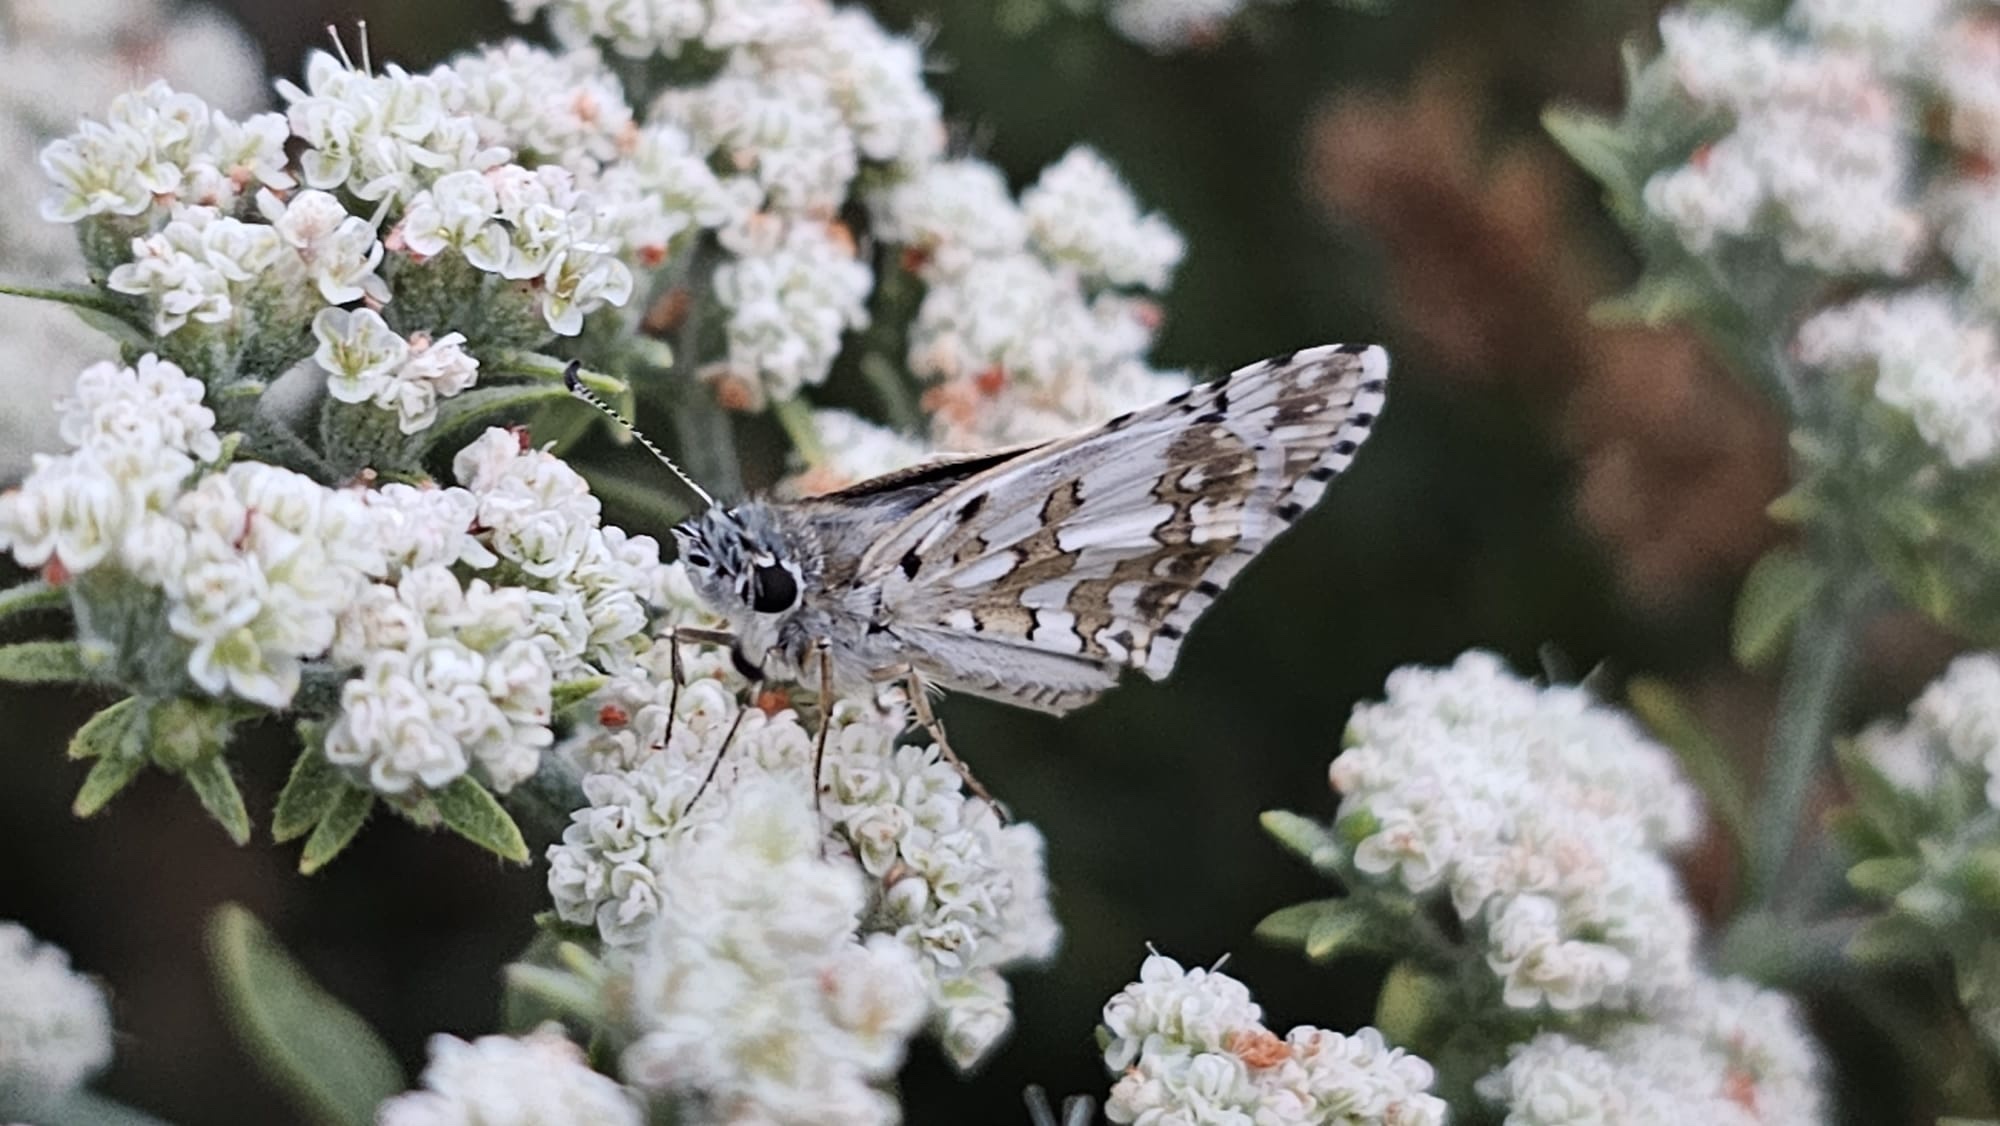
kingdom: Animalia
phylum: Arthropoda
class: Insecta
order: Lepidoptera
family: Hesperiidae
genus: Burnsius
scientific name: Burnsius communis
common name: Common checkered-skipper
